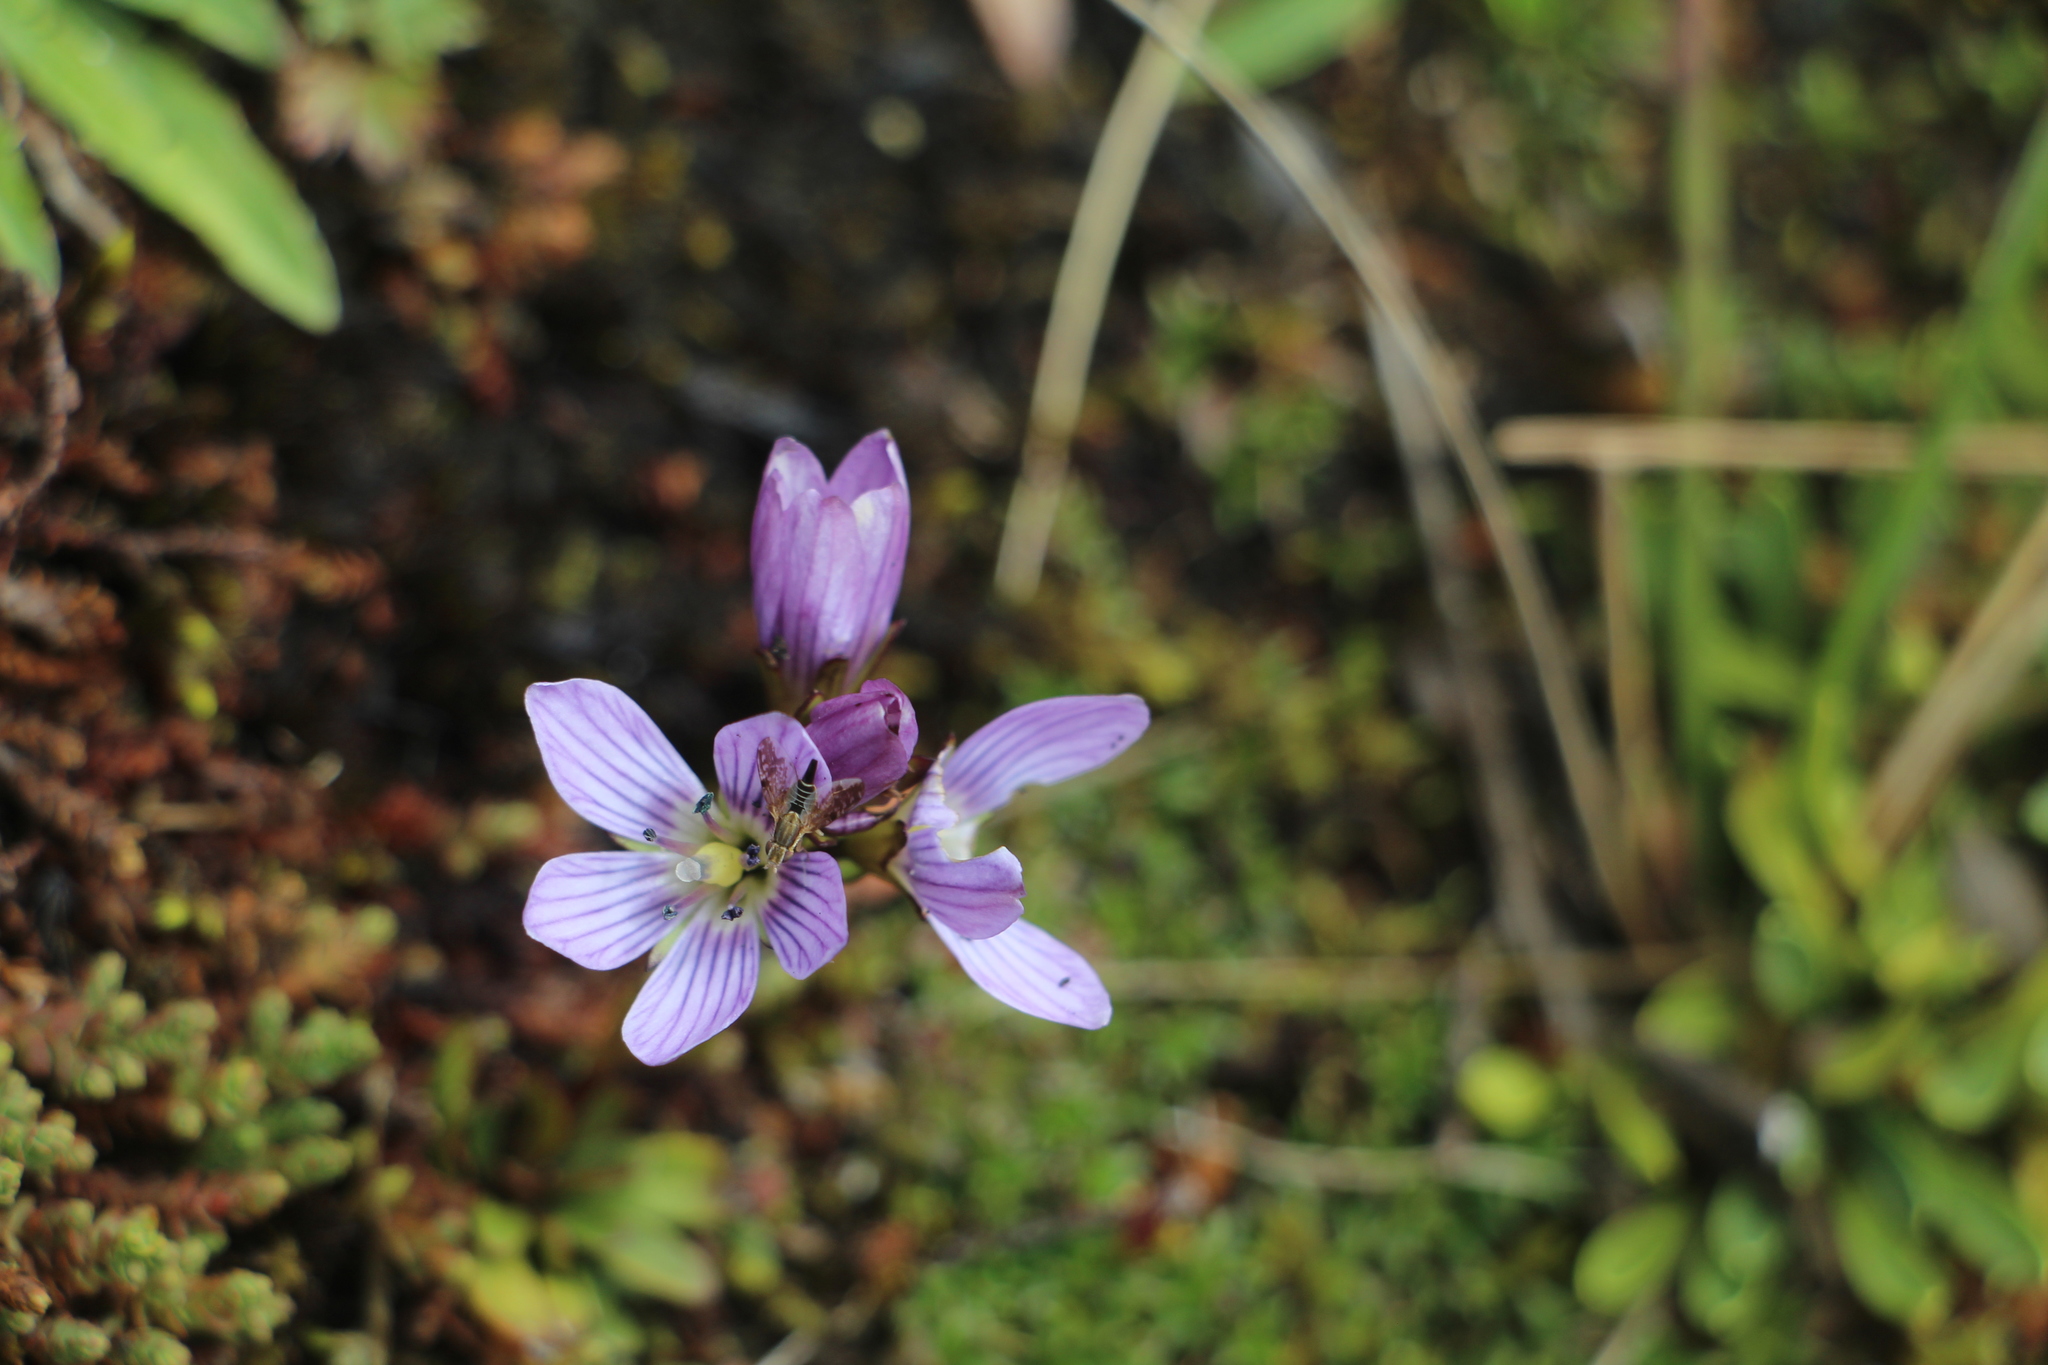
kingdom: Plantae
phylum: Tracheophyta
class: Magnoliopsida
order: Gentianales
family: Gentianaceae
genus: Gentianella
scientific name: Gentianella corymbosa
